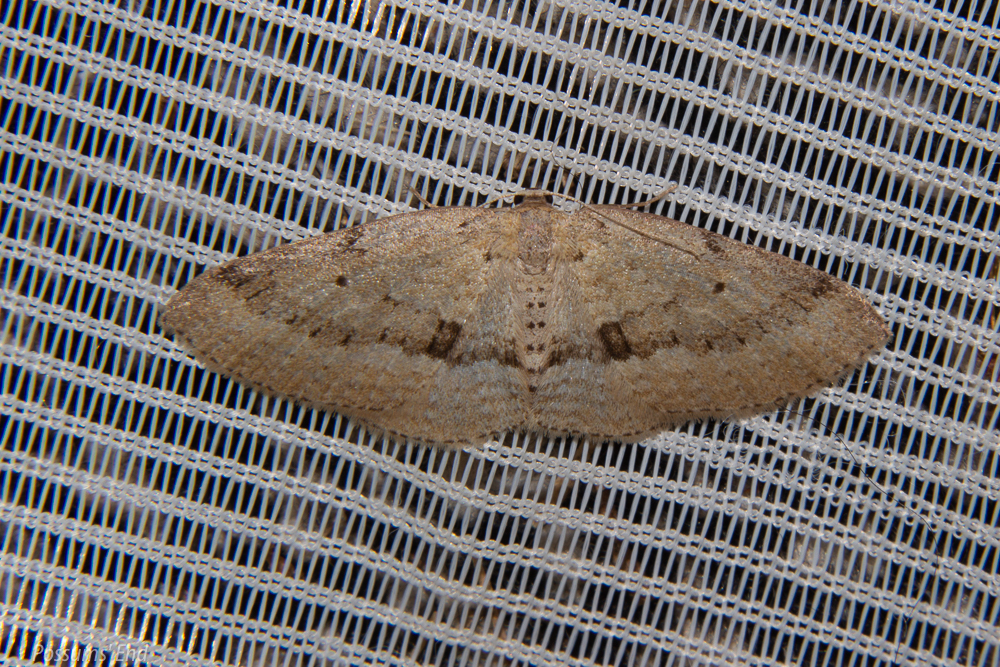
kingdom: Animalia
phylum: Arthropoda
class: Insecta
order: Lepidoptera
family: Geometridae
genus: Poecilasthena
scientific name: Poecilasthena schistaria
